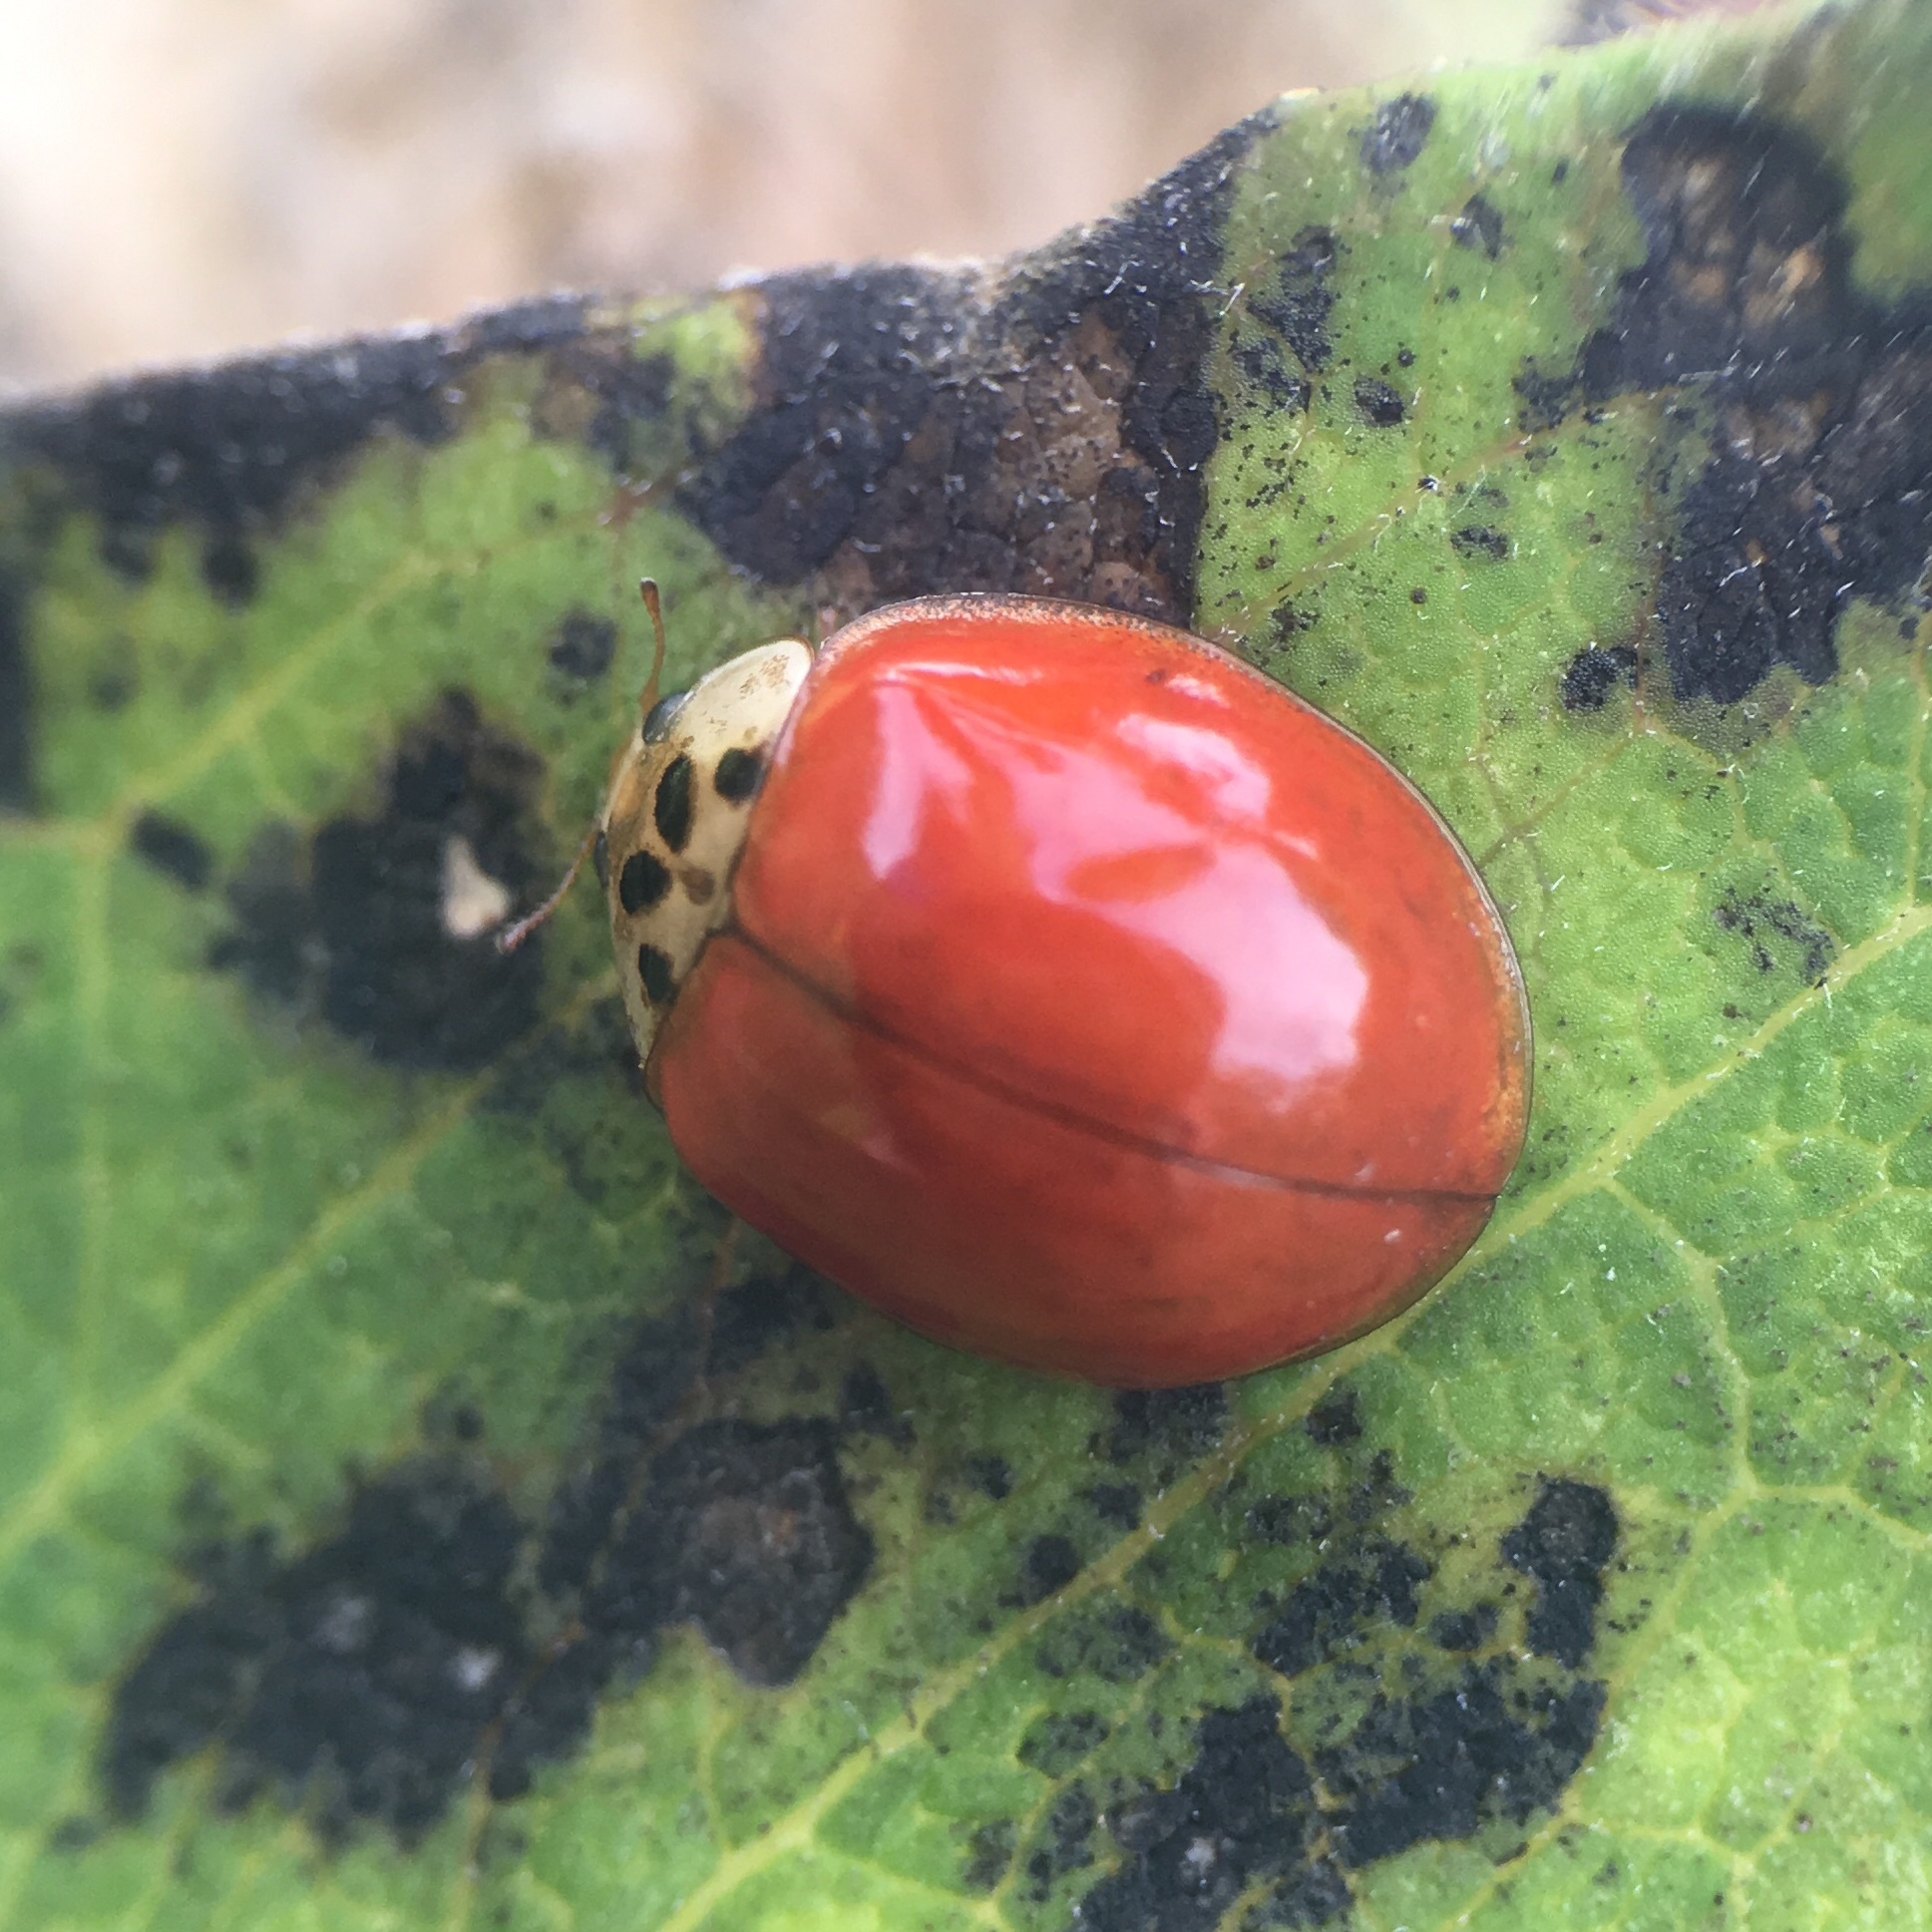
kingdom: Animalia
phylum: Arthropoda
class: Insecta
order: Coleoptera
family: Coccinellidae
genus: Harmonia
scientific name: Harmonia axyridis
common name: Harlequin ladybird
